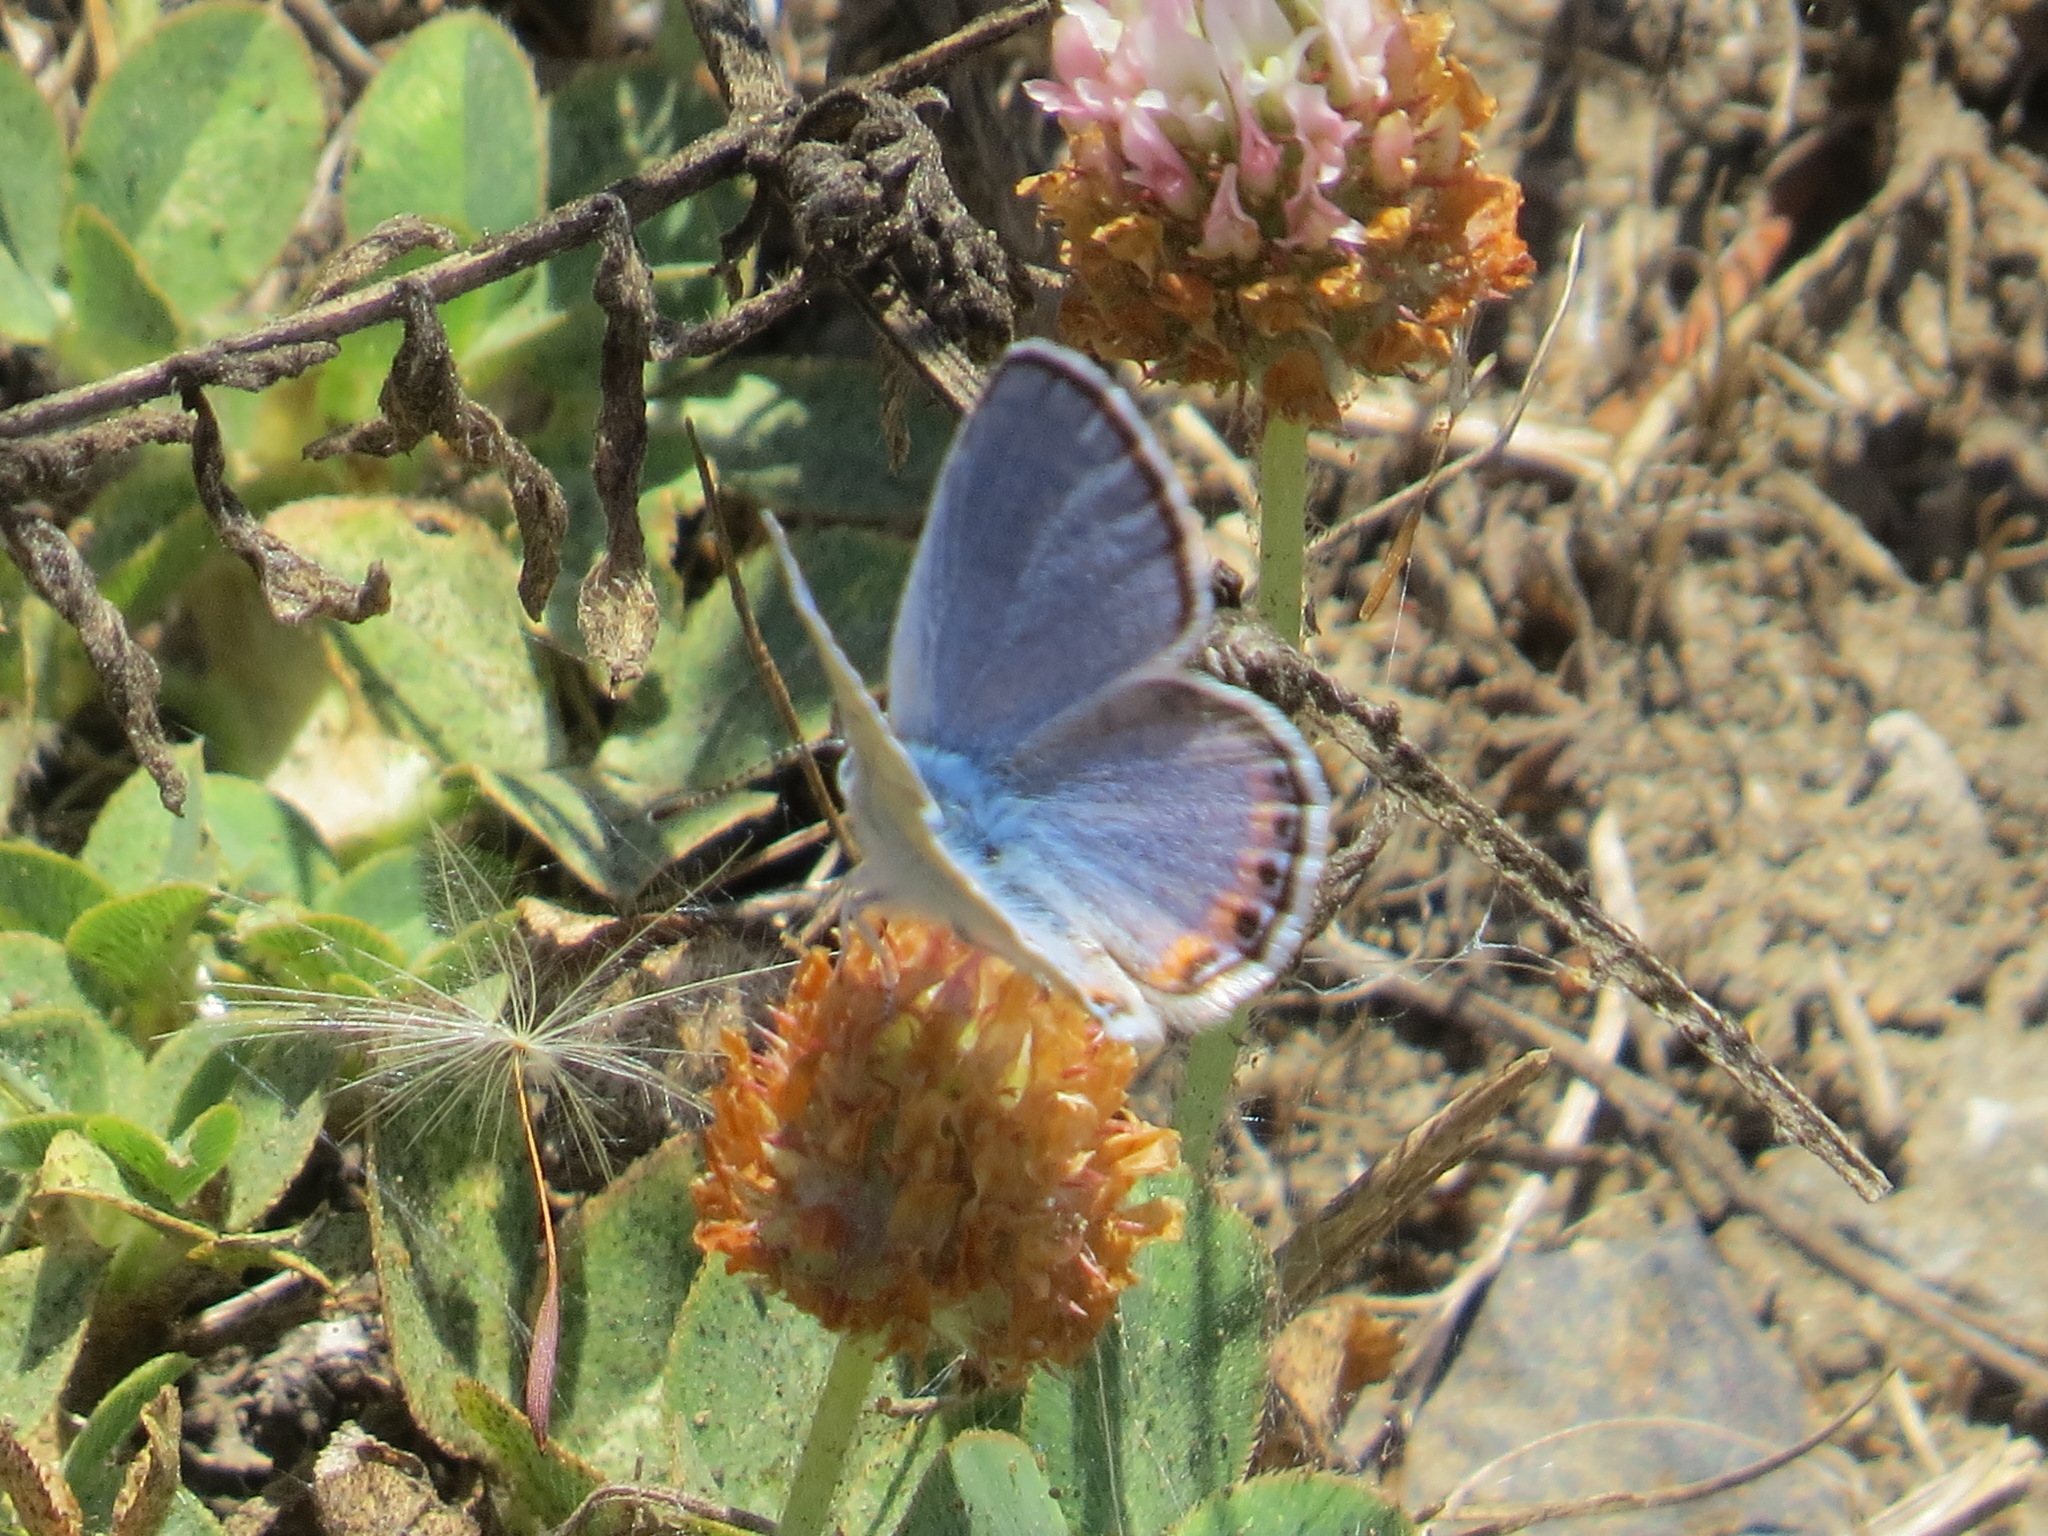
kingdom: Animalia
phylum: Arthropoda
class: Insecta
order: Lepidoptera
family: Lycaenidae
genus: Icaricia
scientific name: Icaricia acmon
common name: Acmon blue
